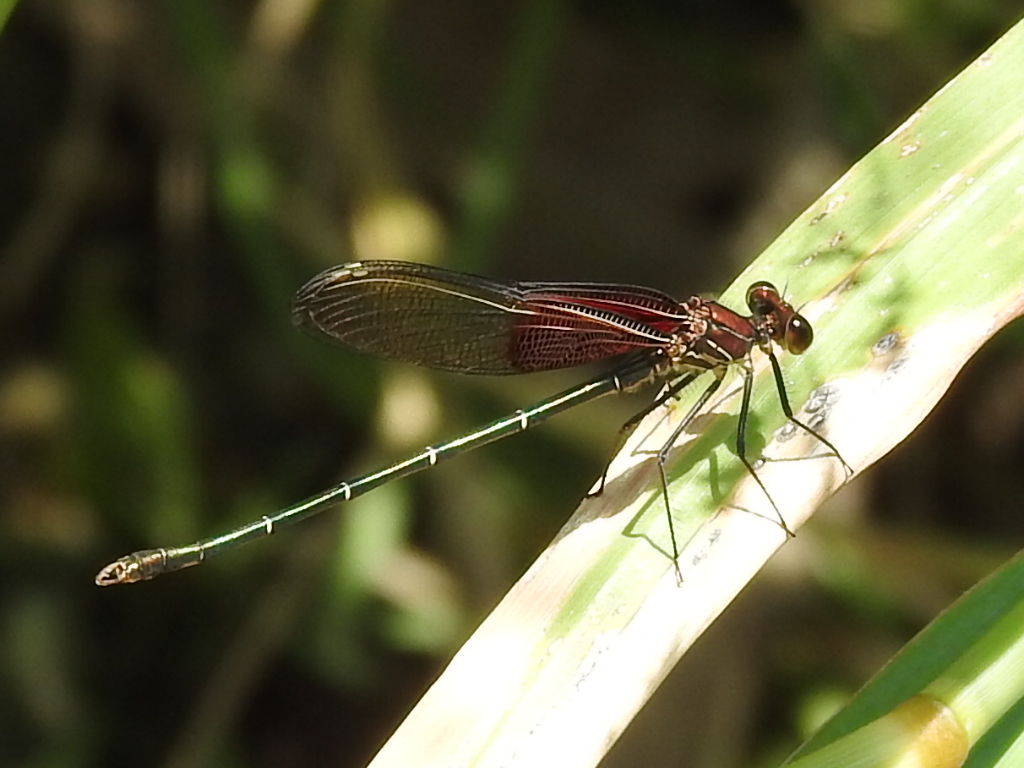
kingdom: Animalia
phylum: Arthropoda
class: Insecta
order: Odonata
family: Calopterygidae
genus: Hetaerina
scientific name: Hetaerina americana
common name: American rubyspot
